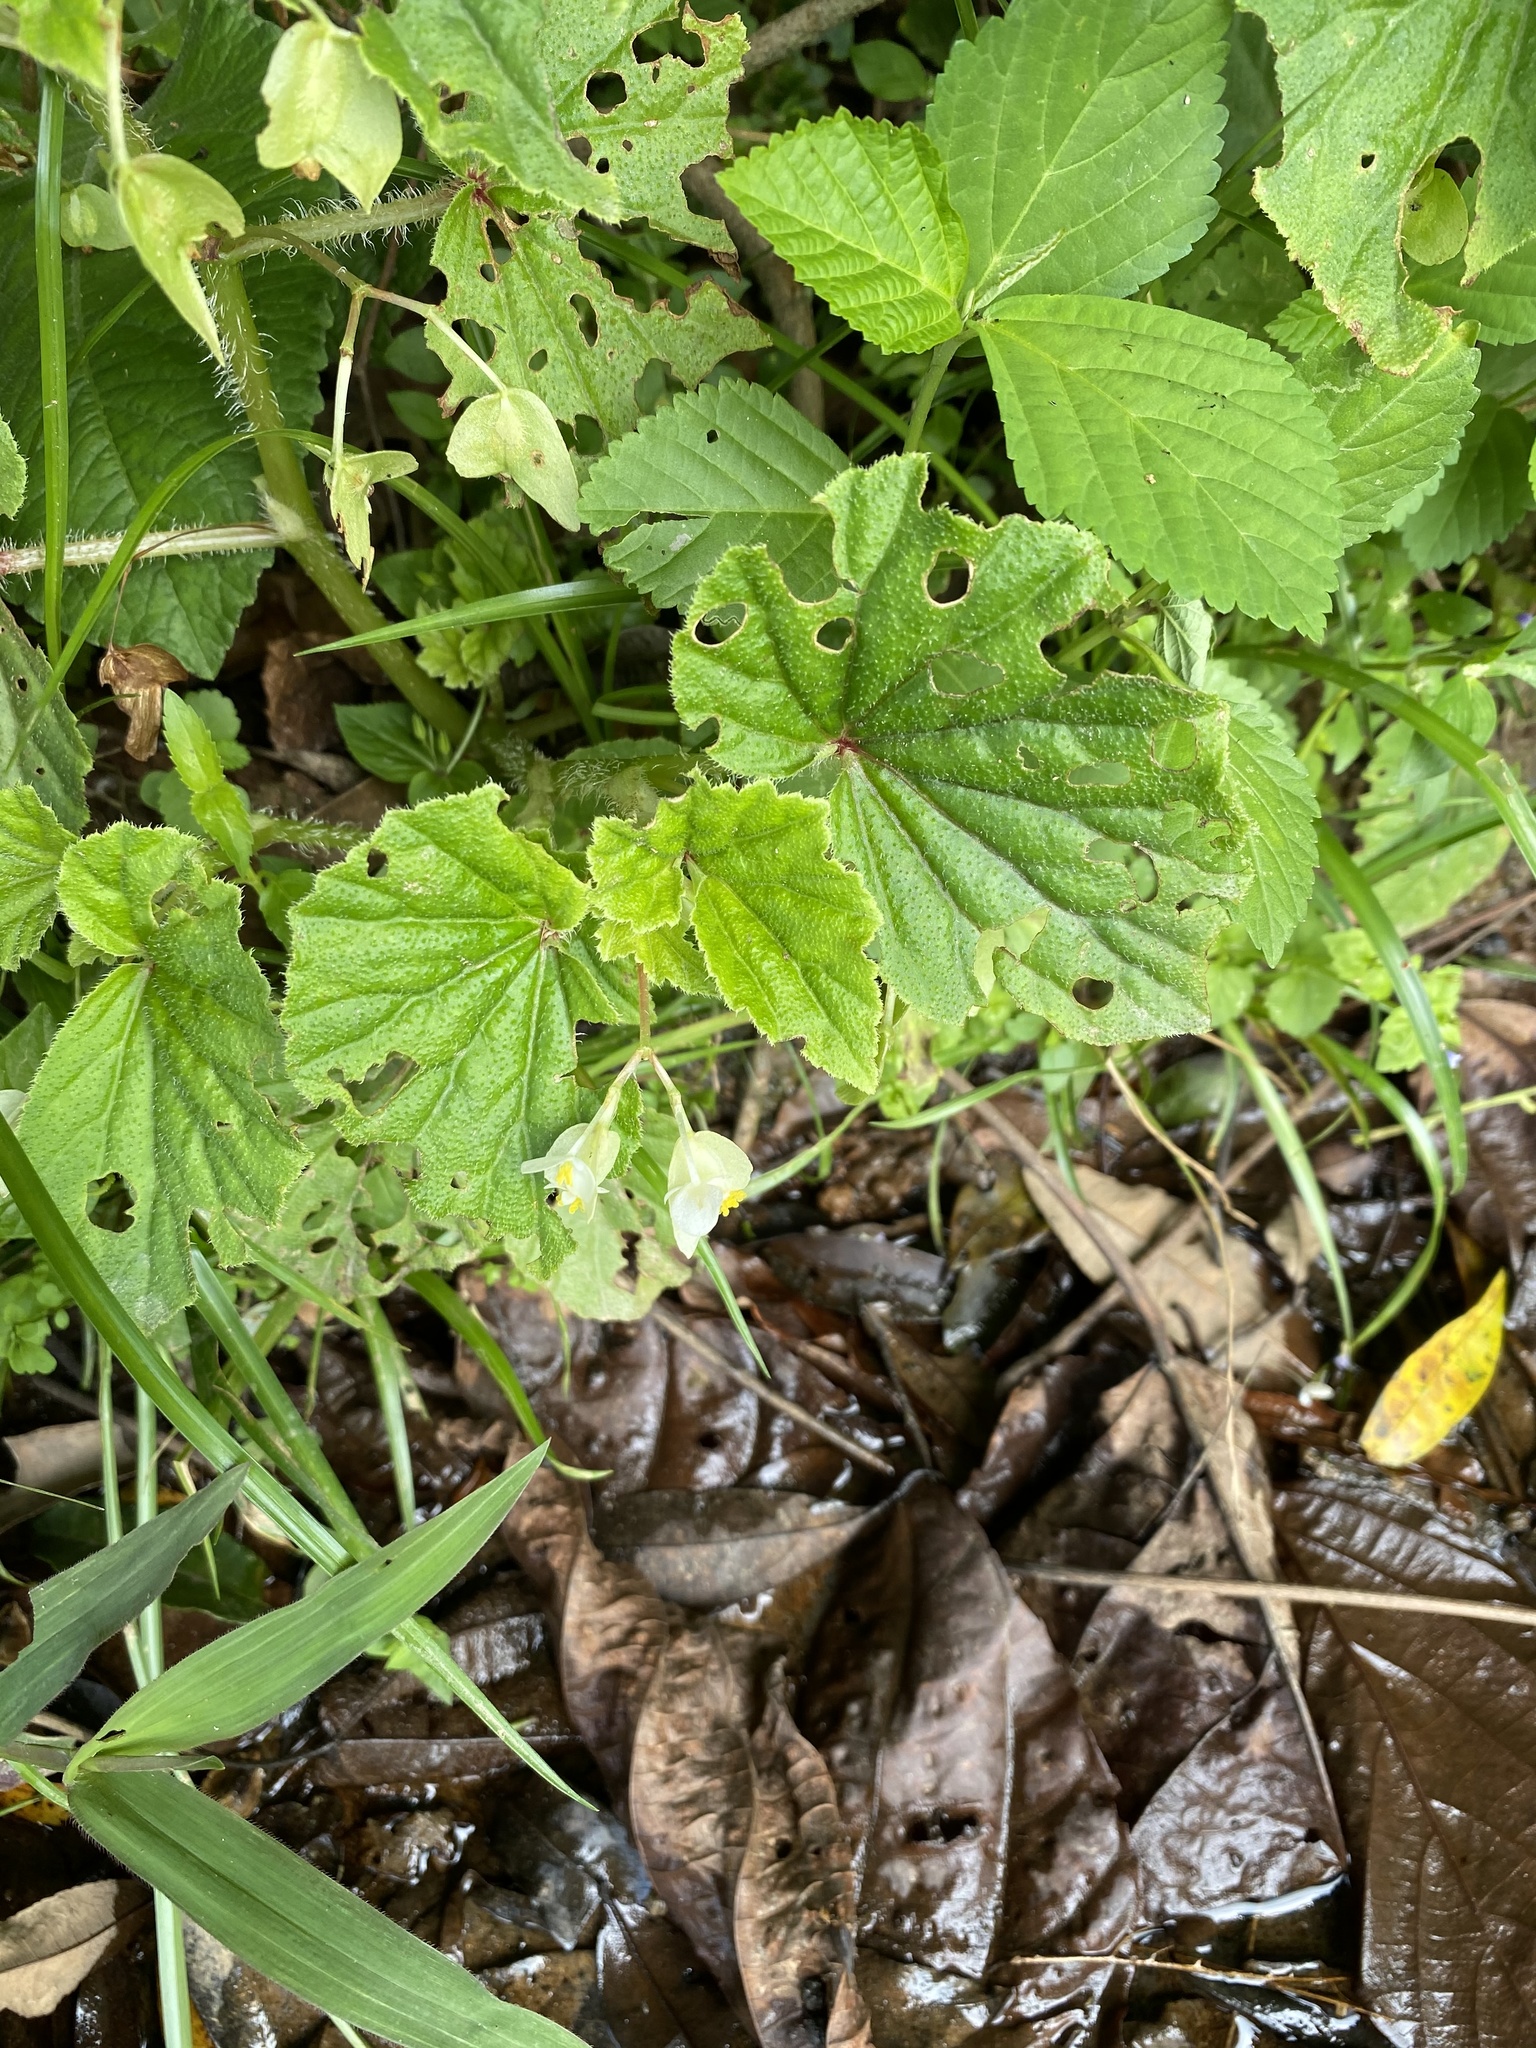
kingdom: Plantae
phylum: Tracheophyta
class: Magnoliopsida
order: Cucurbitales
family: Begoniaceae
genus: Begonia
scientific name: Begonia humilis
